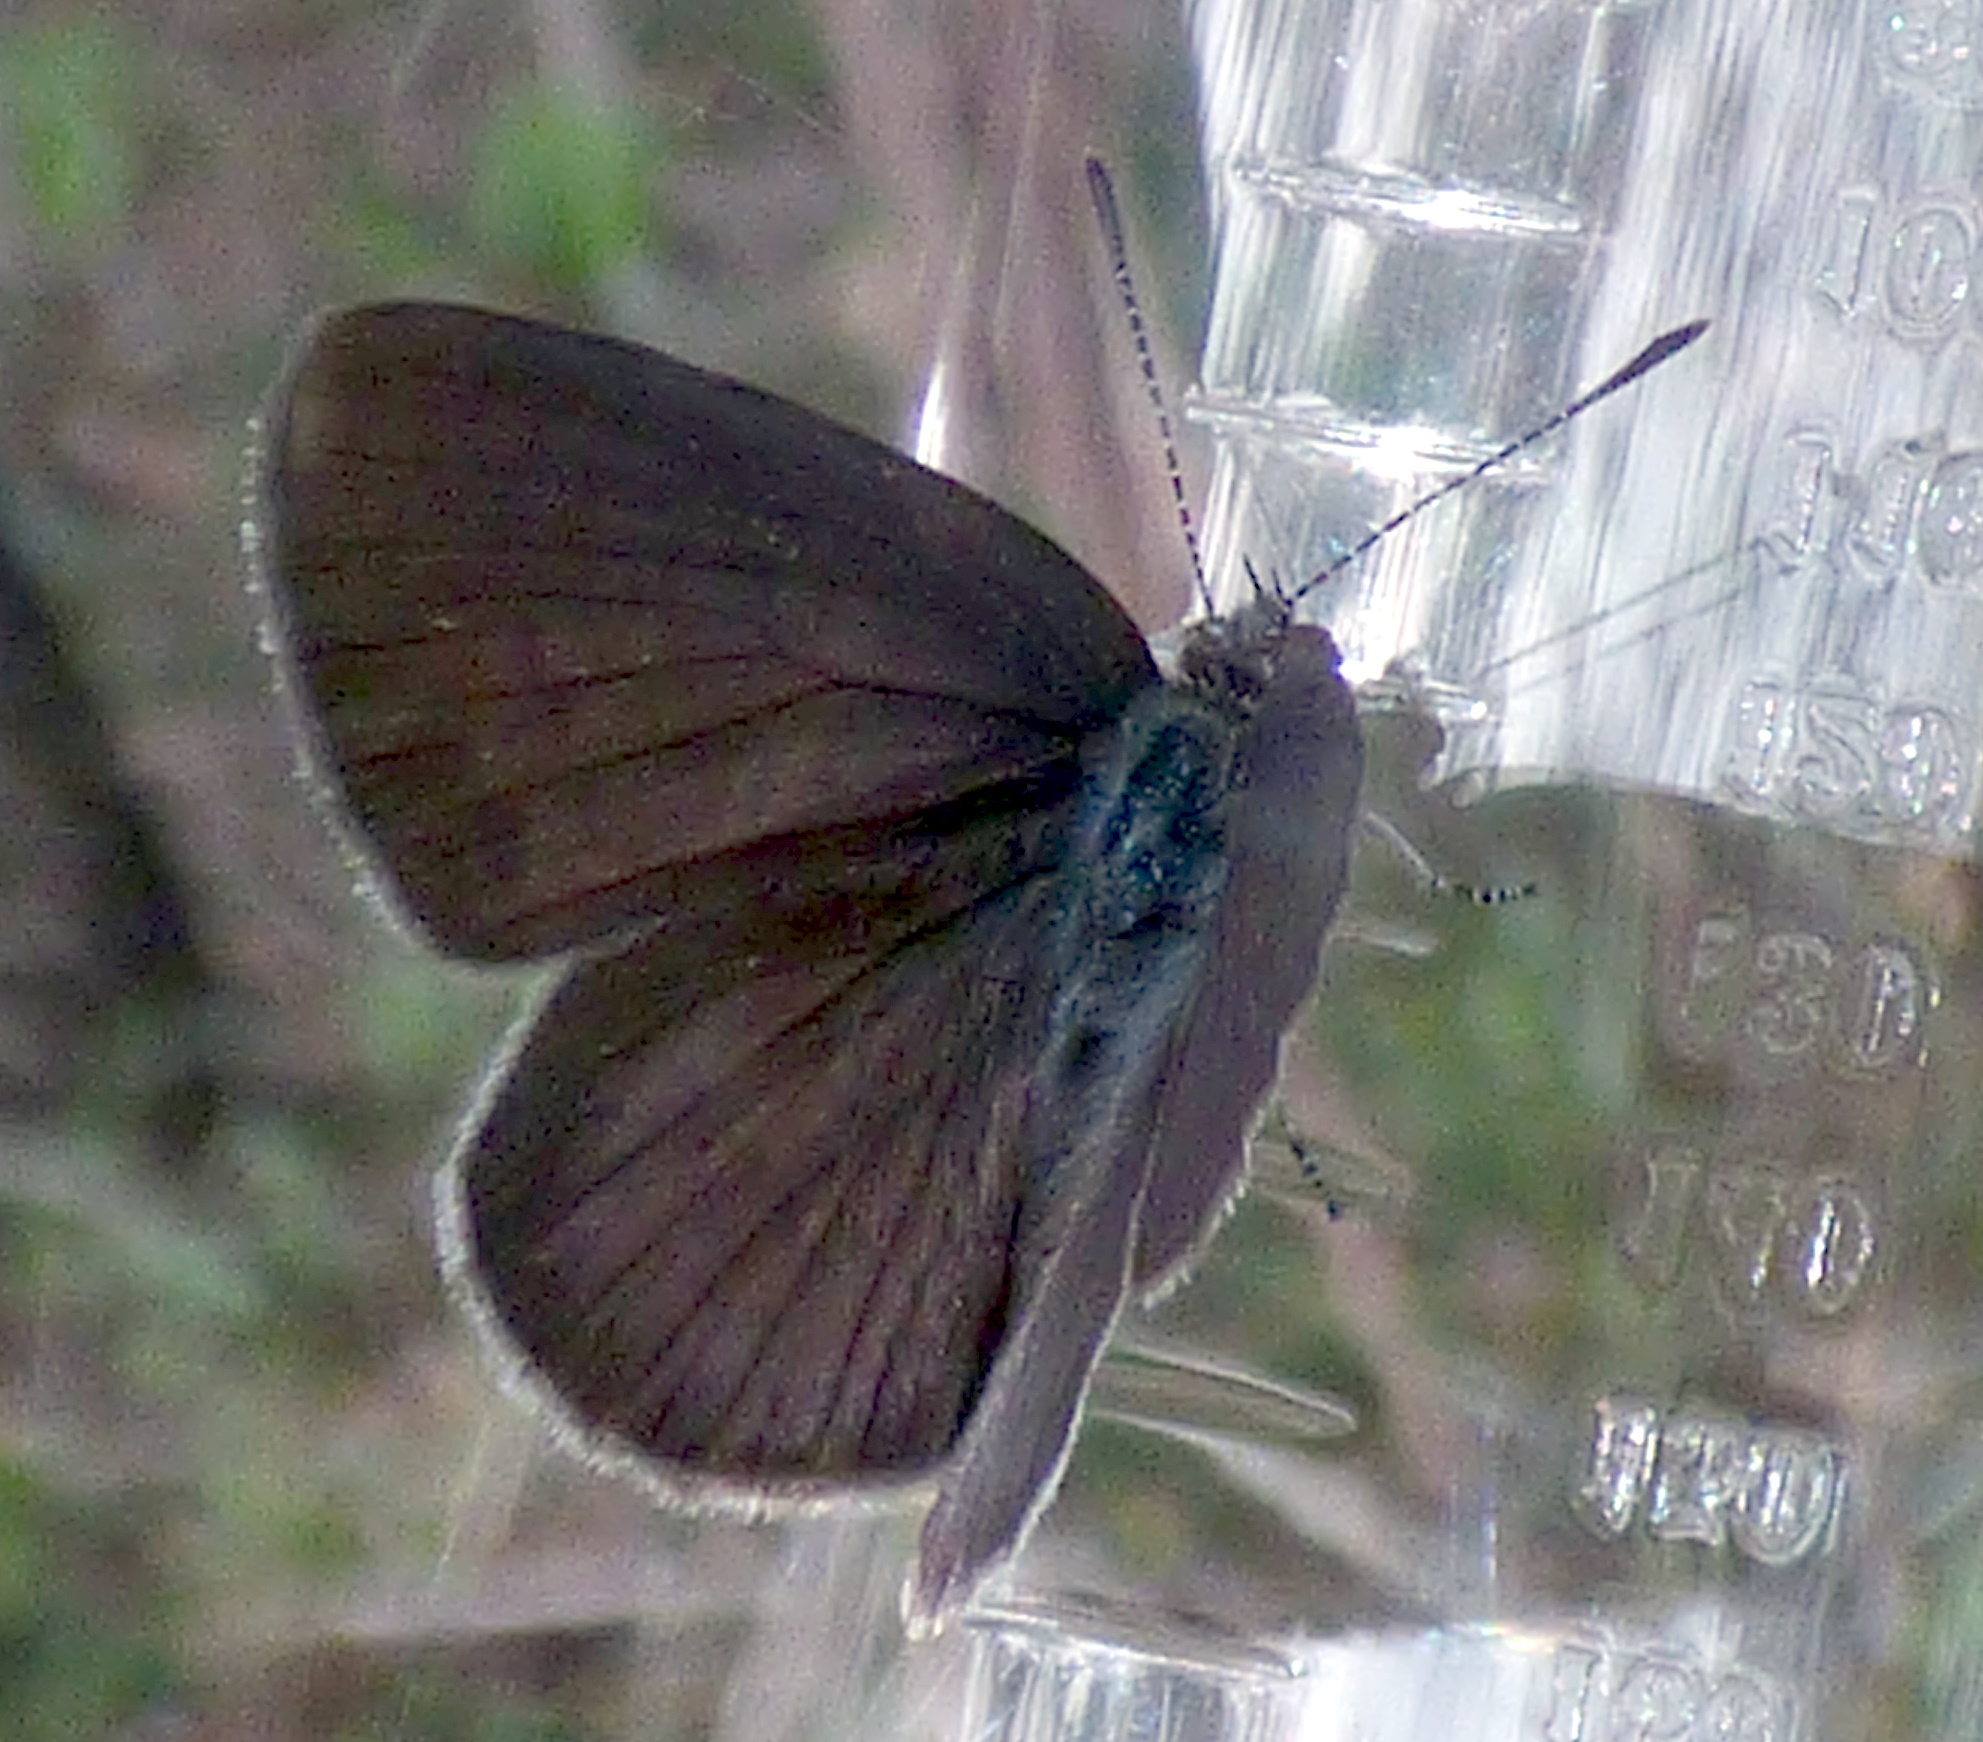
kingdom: Animalia
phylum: Arthropoda
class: Insecta
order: Lepidoptera
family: Lycaenidae
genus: Candalides
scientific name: Candalides
